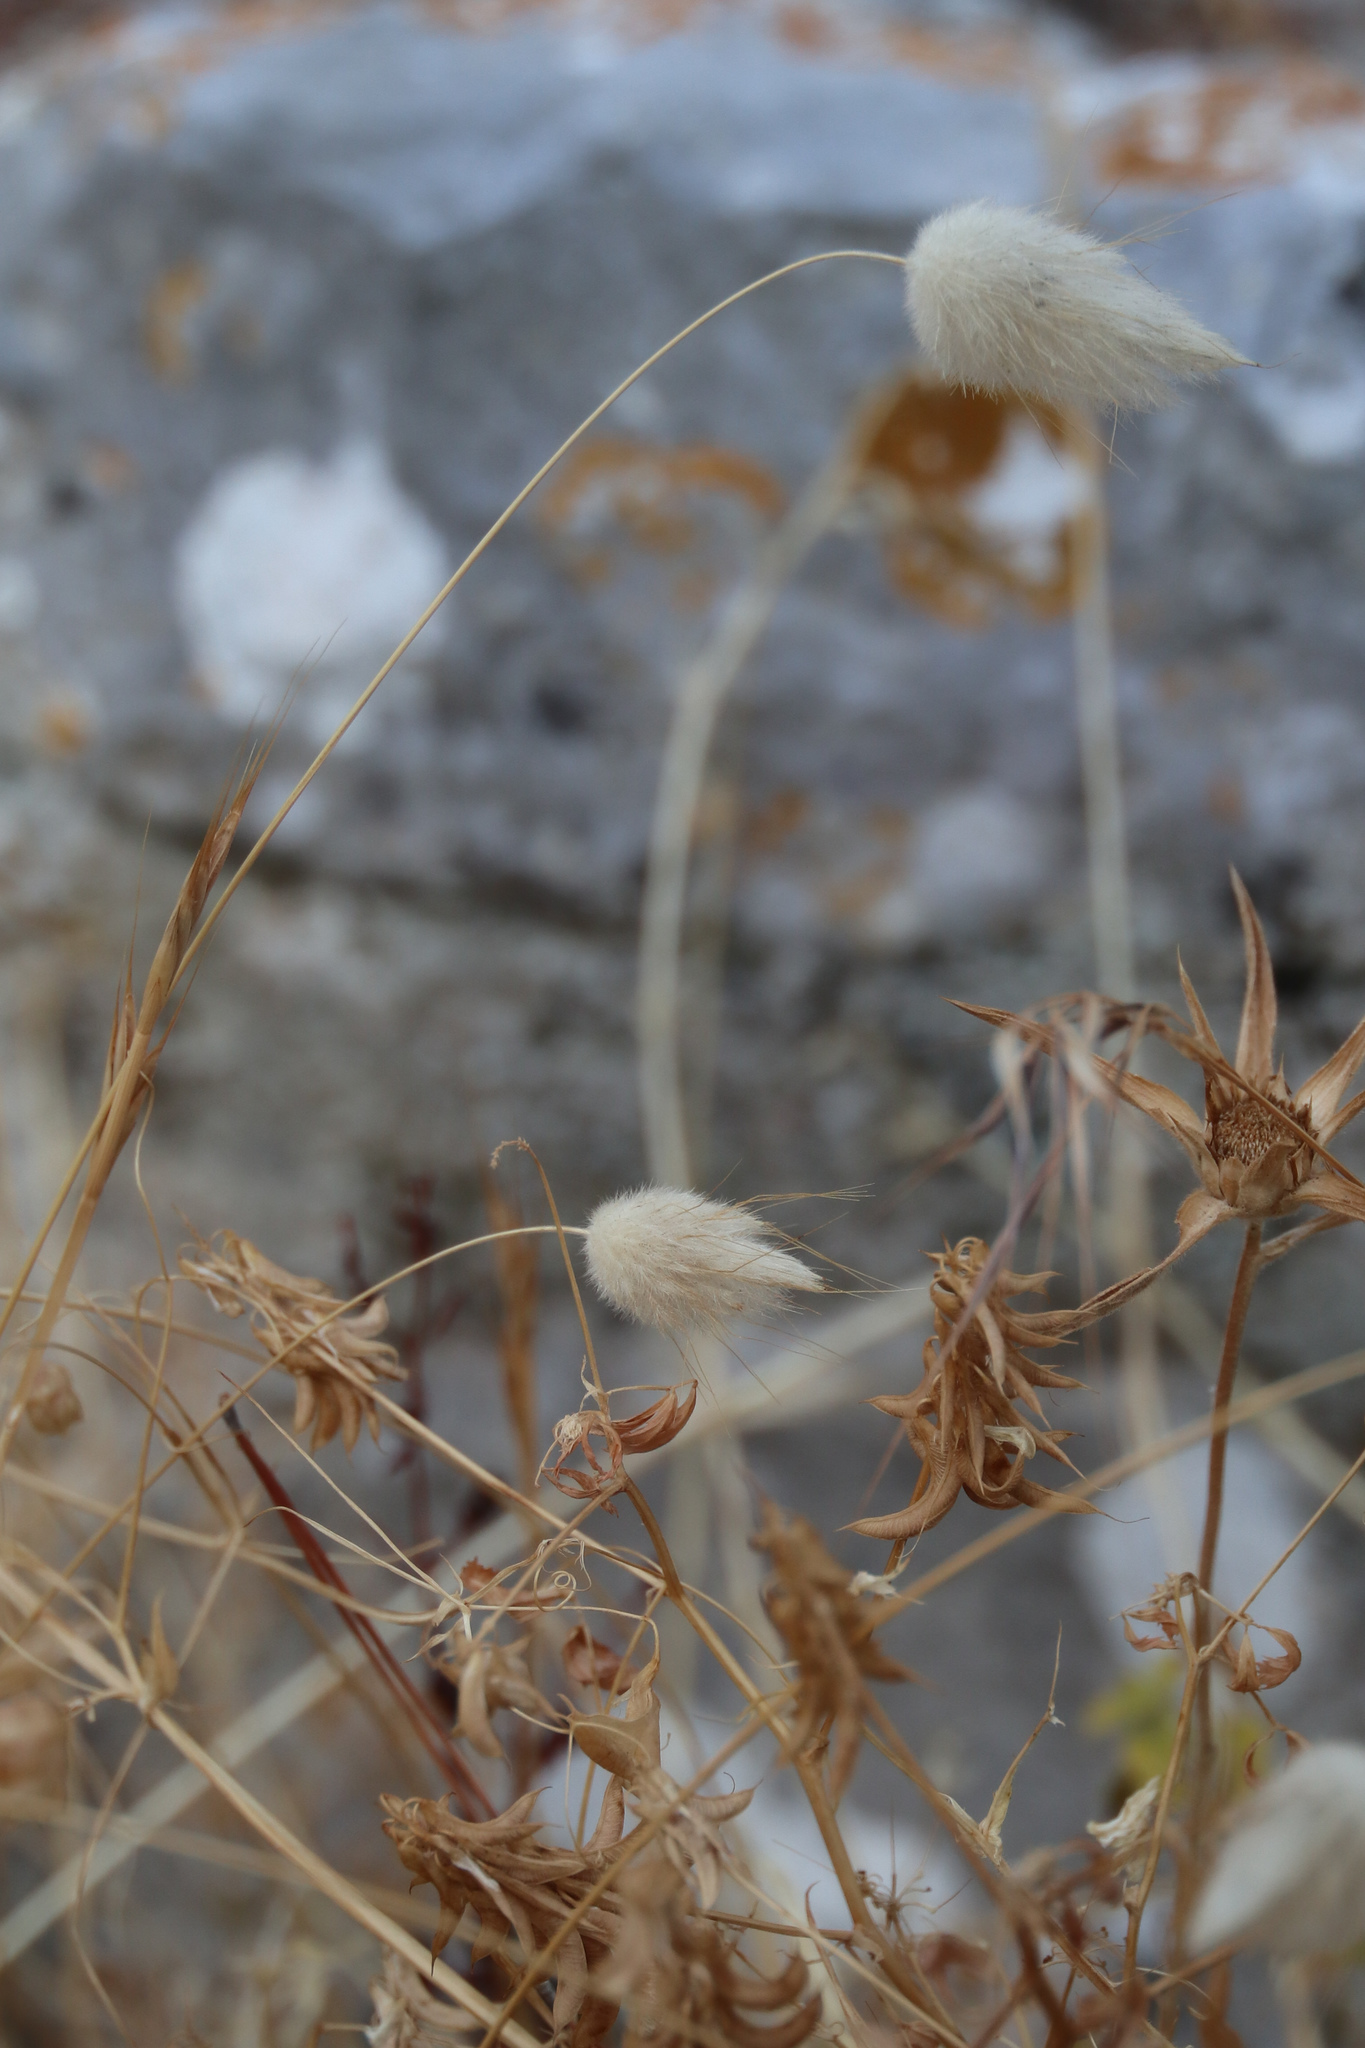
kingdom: Plantae
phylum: Tracheophyta
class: Liliopsida
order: Poales
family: Poaceae
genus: Lagurus
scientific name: Lagurus ovatus
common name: Hare's-tail
